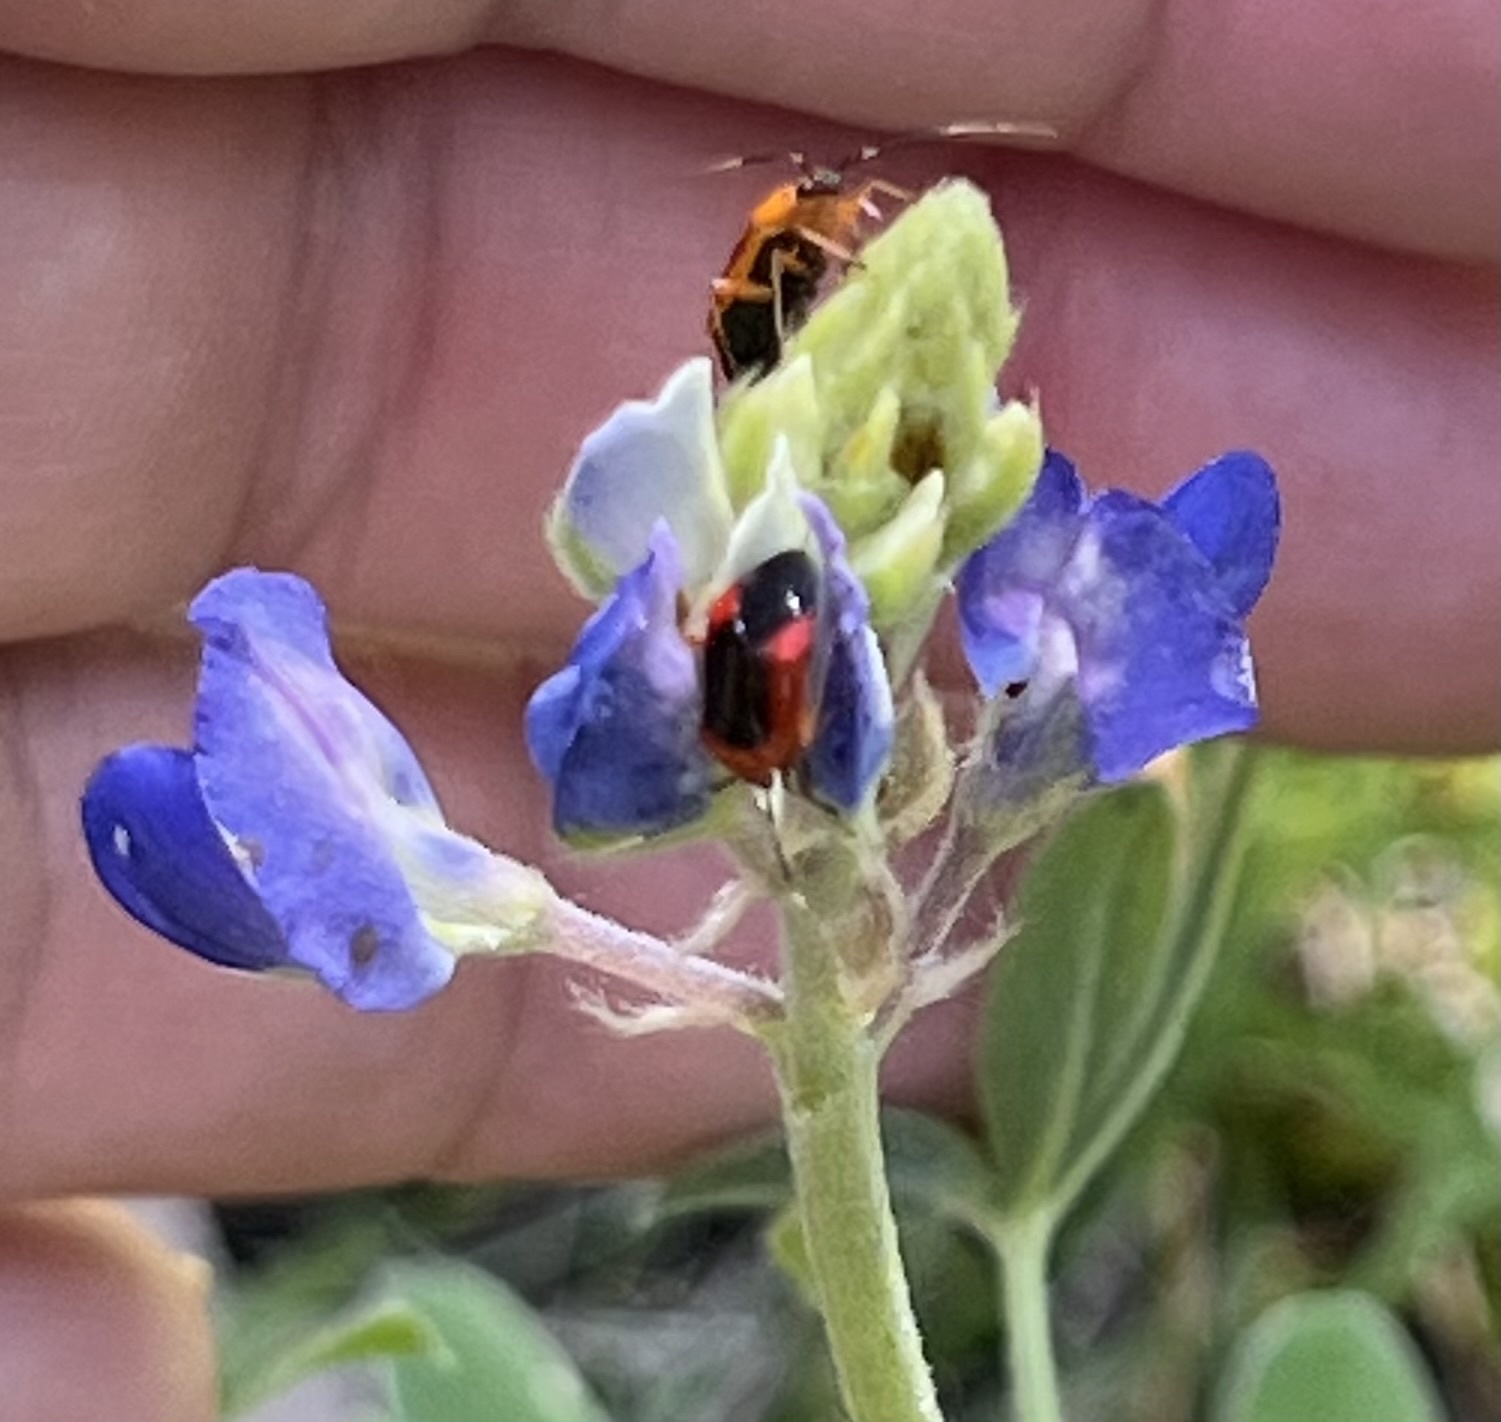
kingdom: Animalia
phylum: Arthropoda
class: Insecta
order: Hemiptera
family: Miridae
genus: Metriorrhynchomiris
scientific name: Metriorrhynchomiris dislocatus
